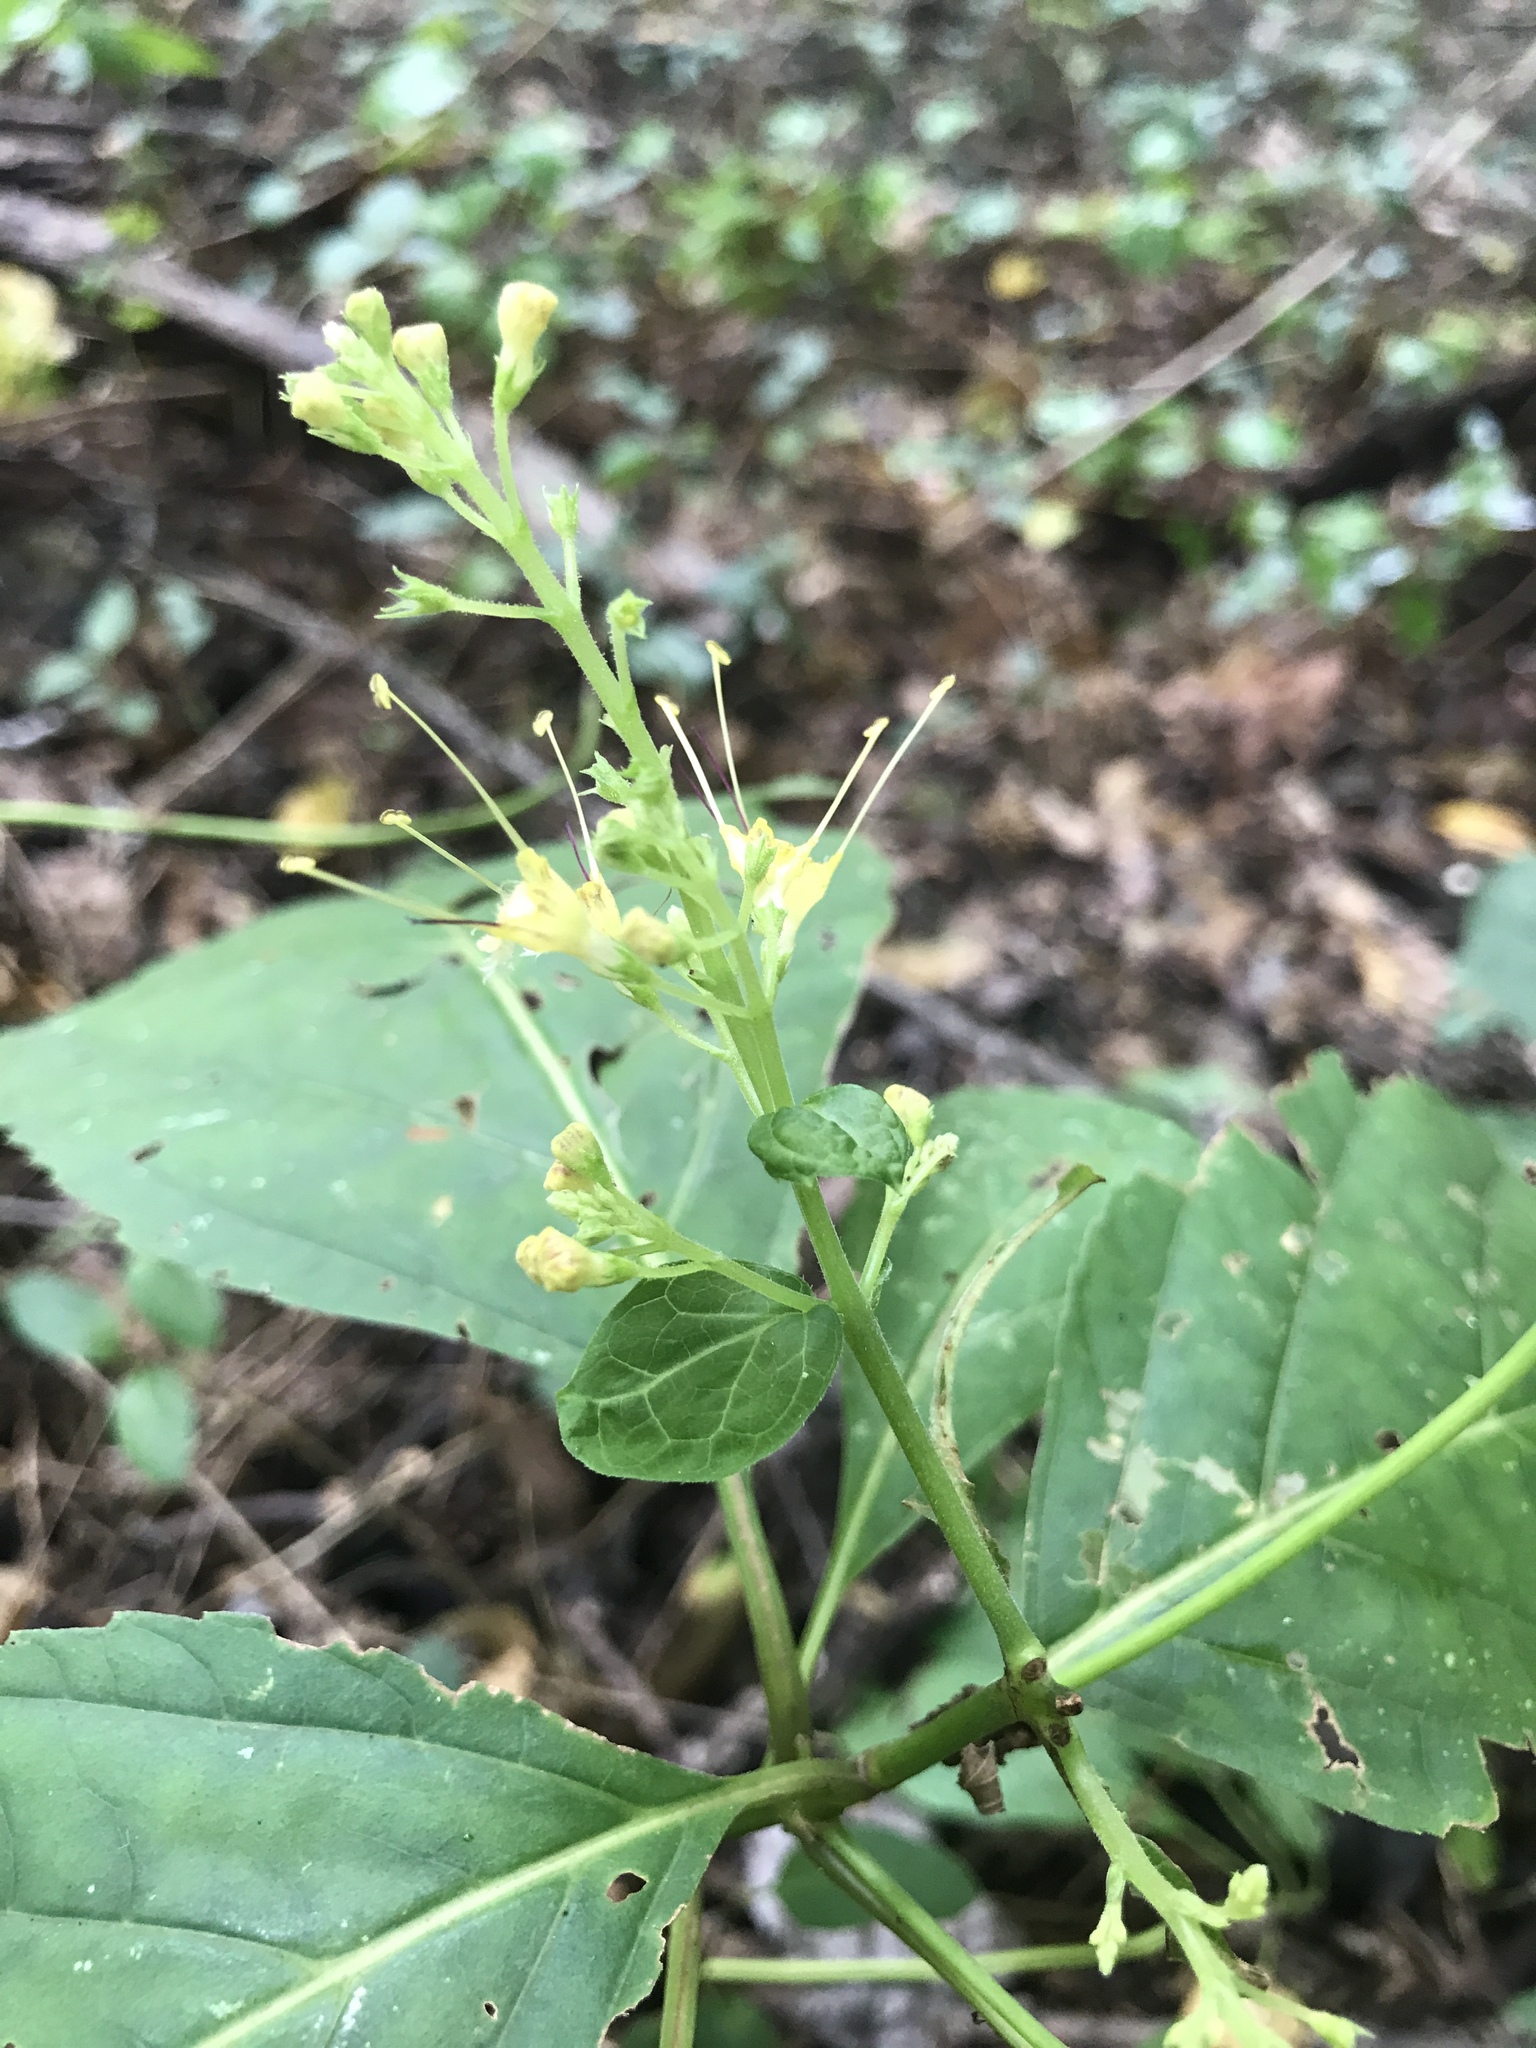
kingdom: Plantae
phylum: Tracheophyta
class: Magnoliopsida
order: Lamiales
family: Lamiaceae
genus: Collinsonia
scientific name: Collinsonia canadensis
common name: Northern horsebalm
